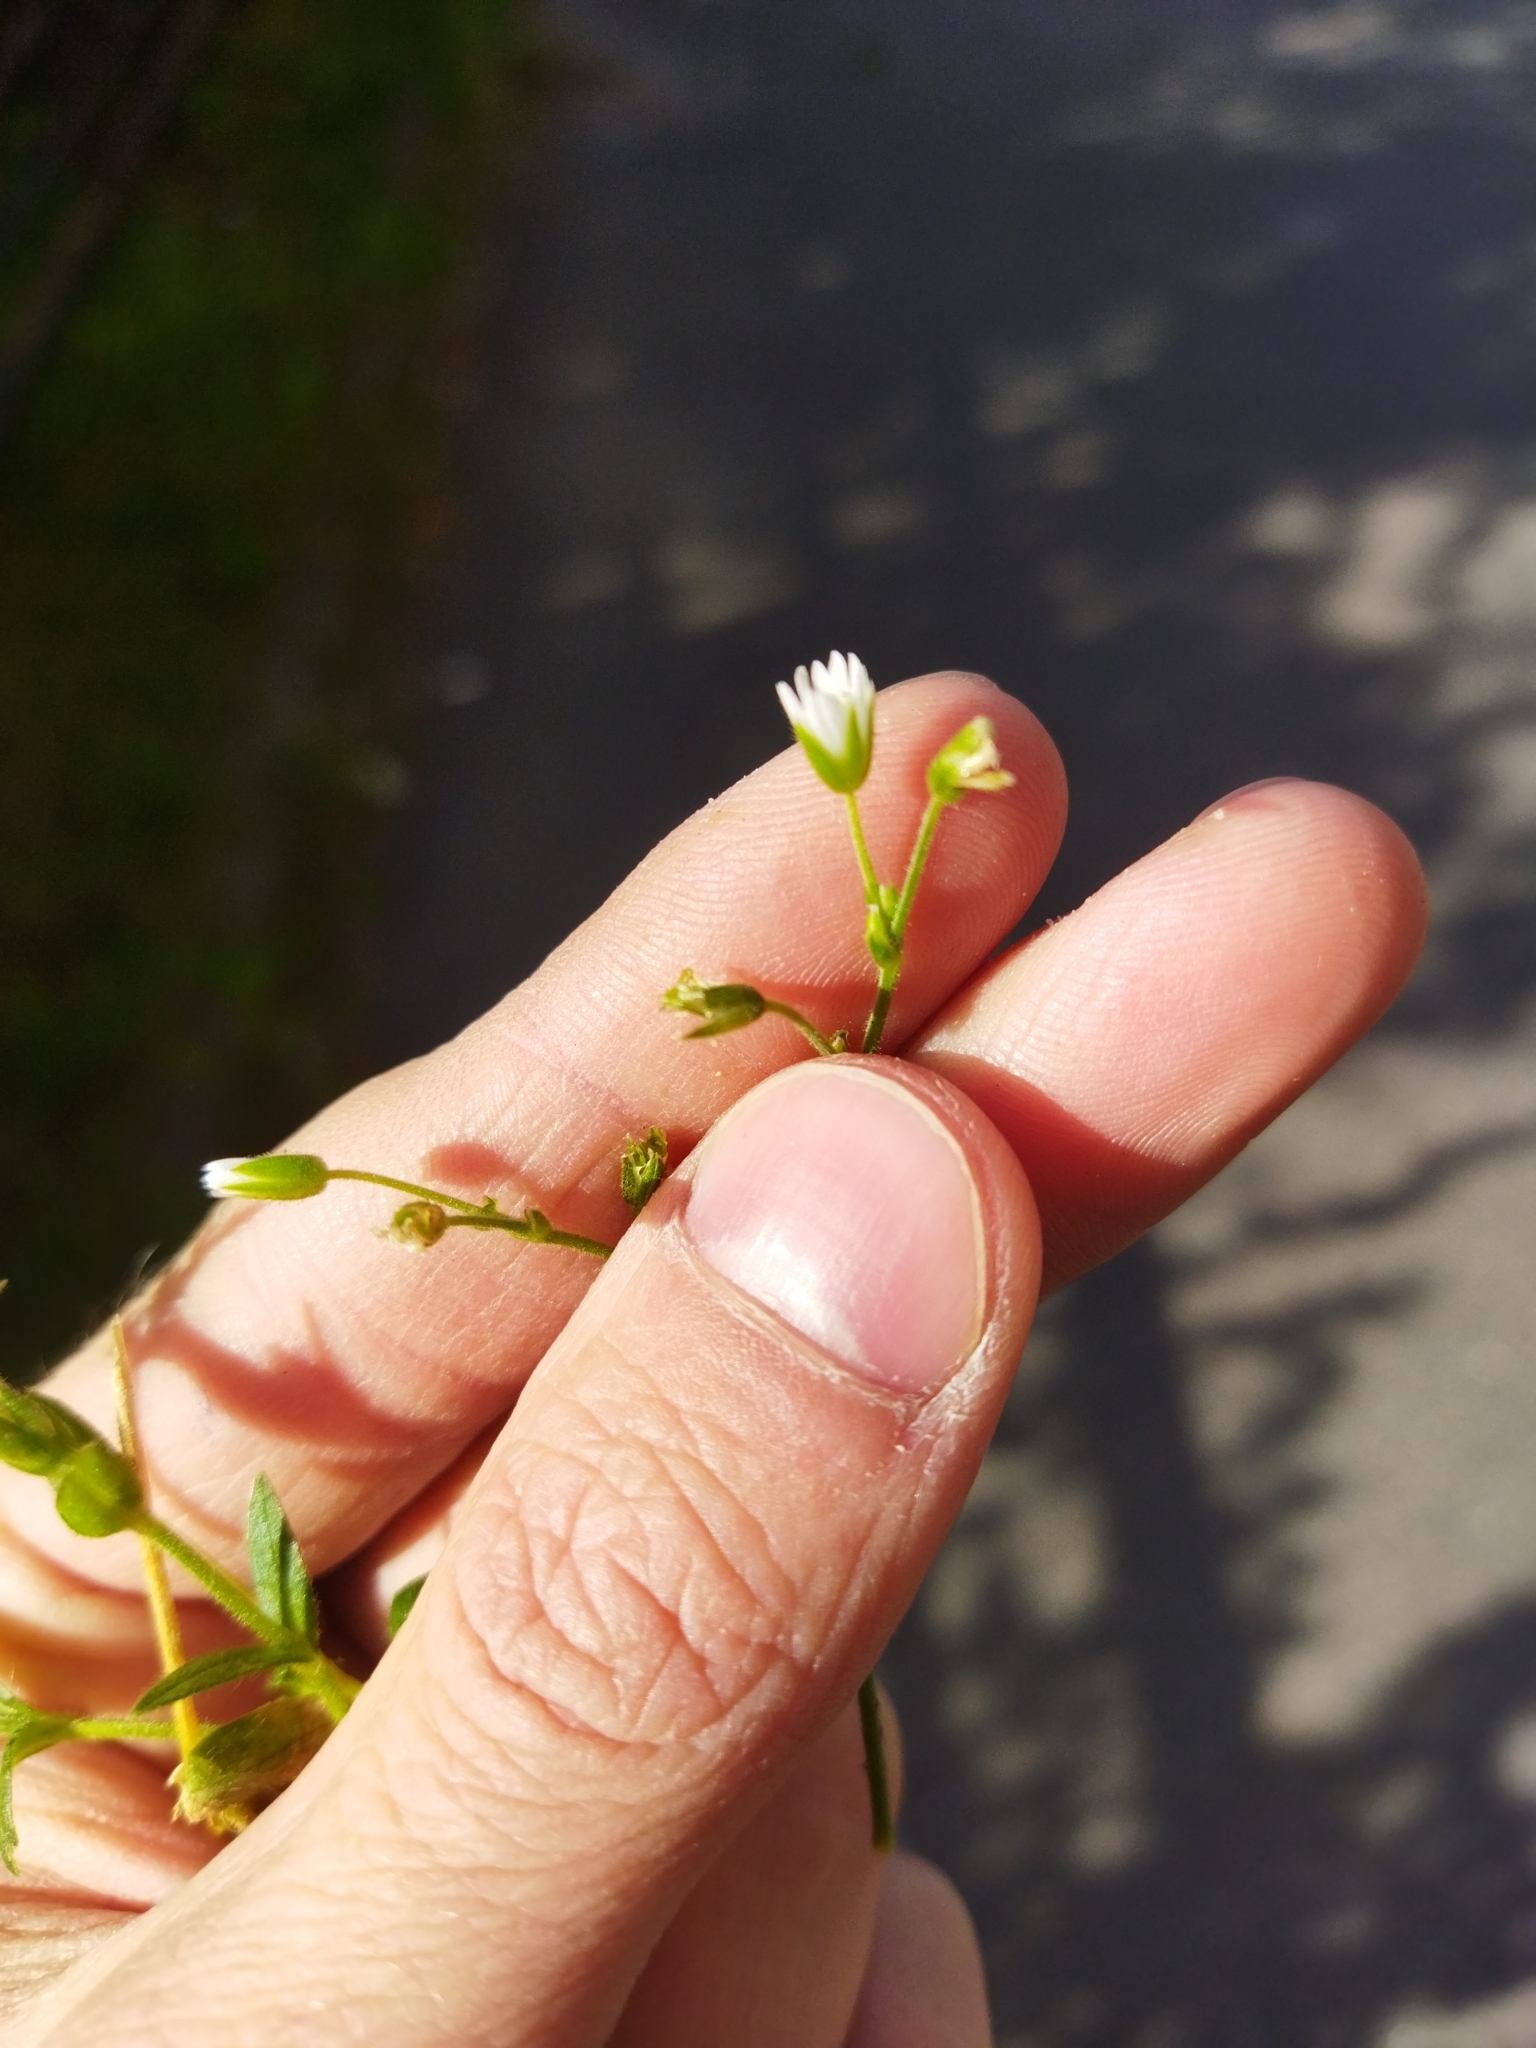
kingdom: Plantae
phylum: Tracheophyta
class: Magnoliopsida
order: Caryophyllales
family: Caryophyllaceae
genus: Cerastium
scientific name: Cerastium holosteoides
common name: Big chickweed
